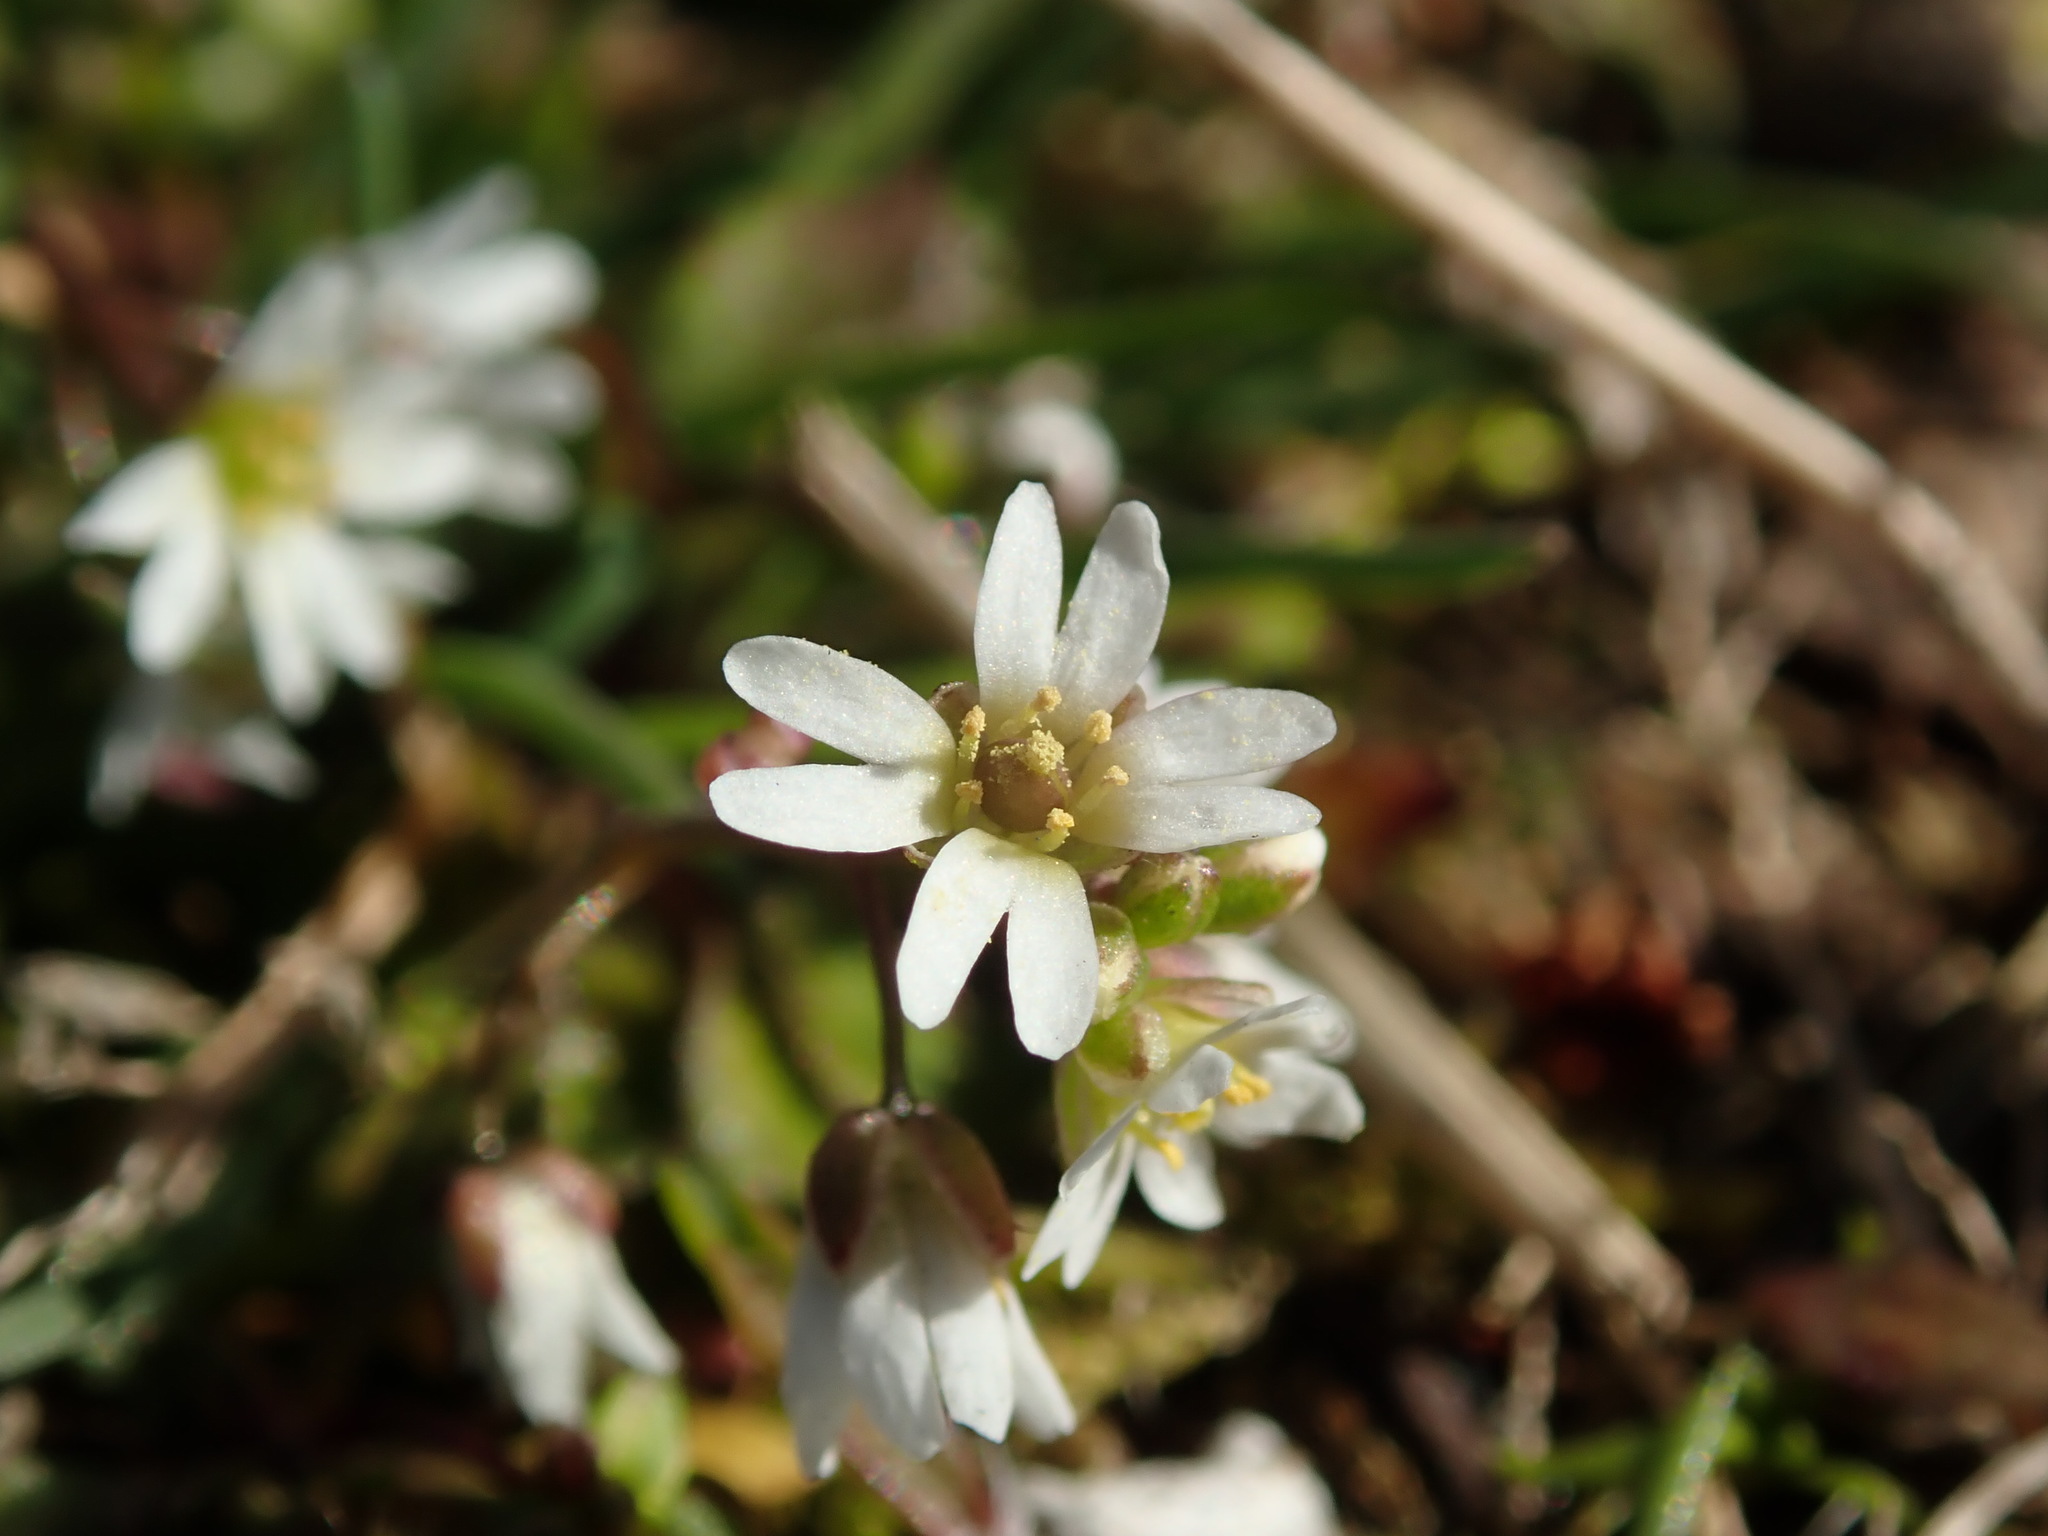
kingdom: Plantae
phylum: Tracheophyta
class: Magnoliopsida
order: Brassicales
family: Brassicaceae
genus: Draba
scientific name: Draba verna
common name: Spring draba
